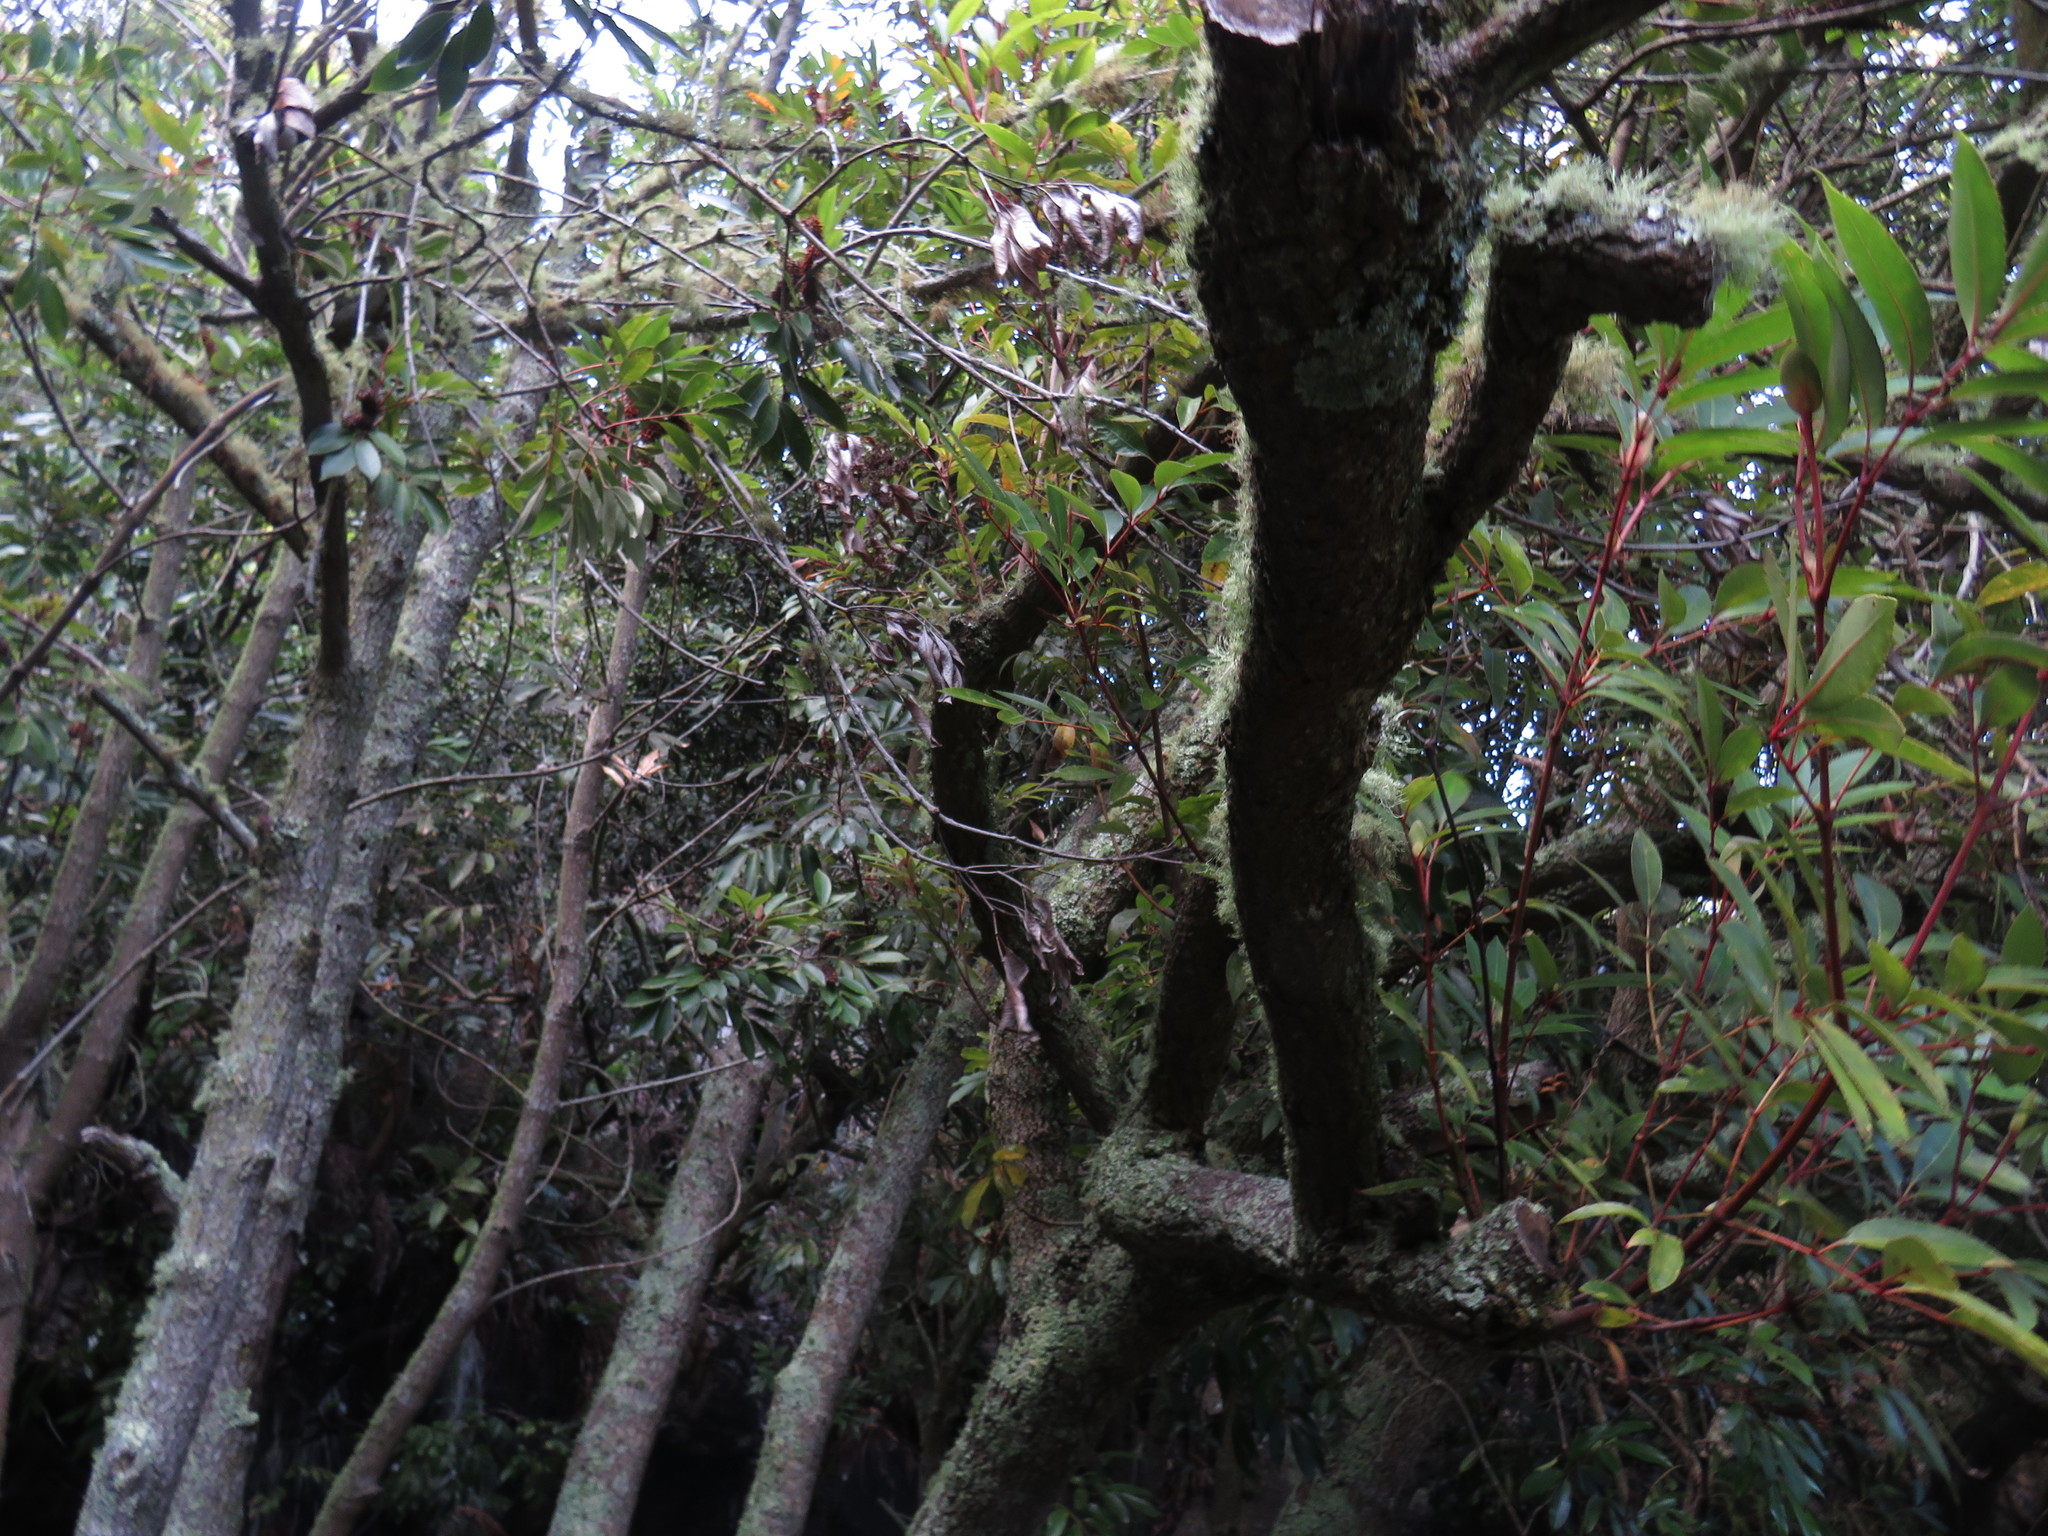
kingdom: Plantae
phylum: Tracheophyta
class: Magnoliopsida
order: Oxalidales
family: Cunoniaceae
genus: Cunonia
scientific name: Cunonia capensis
